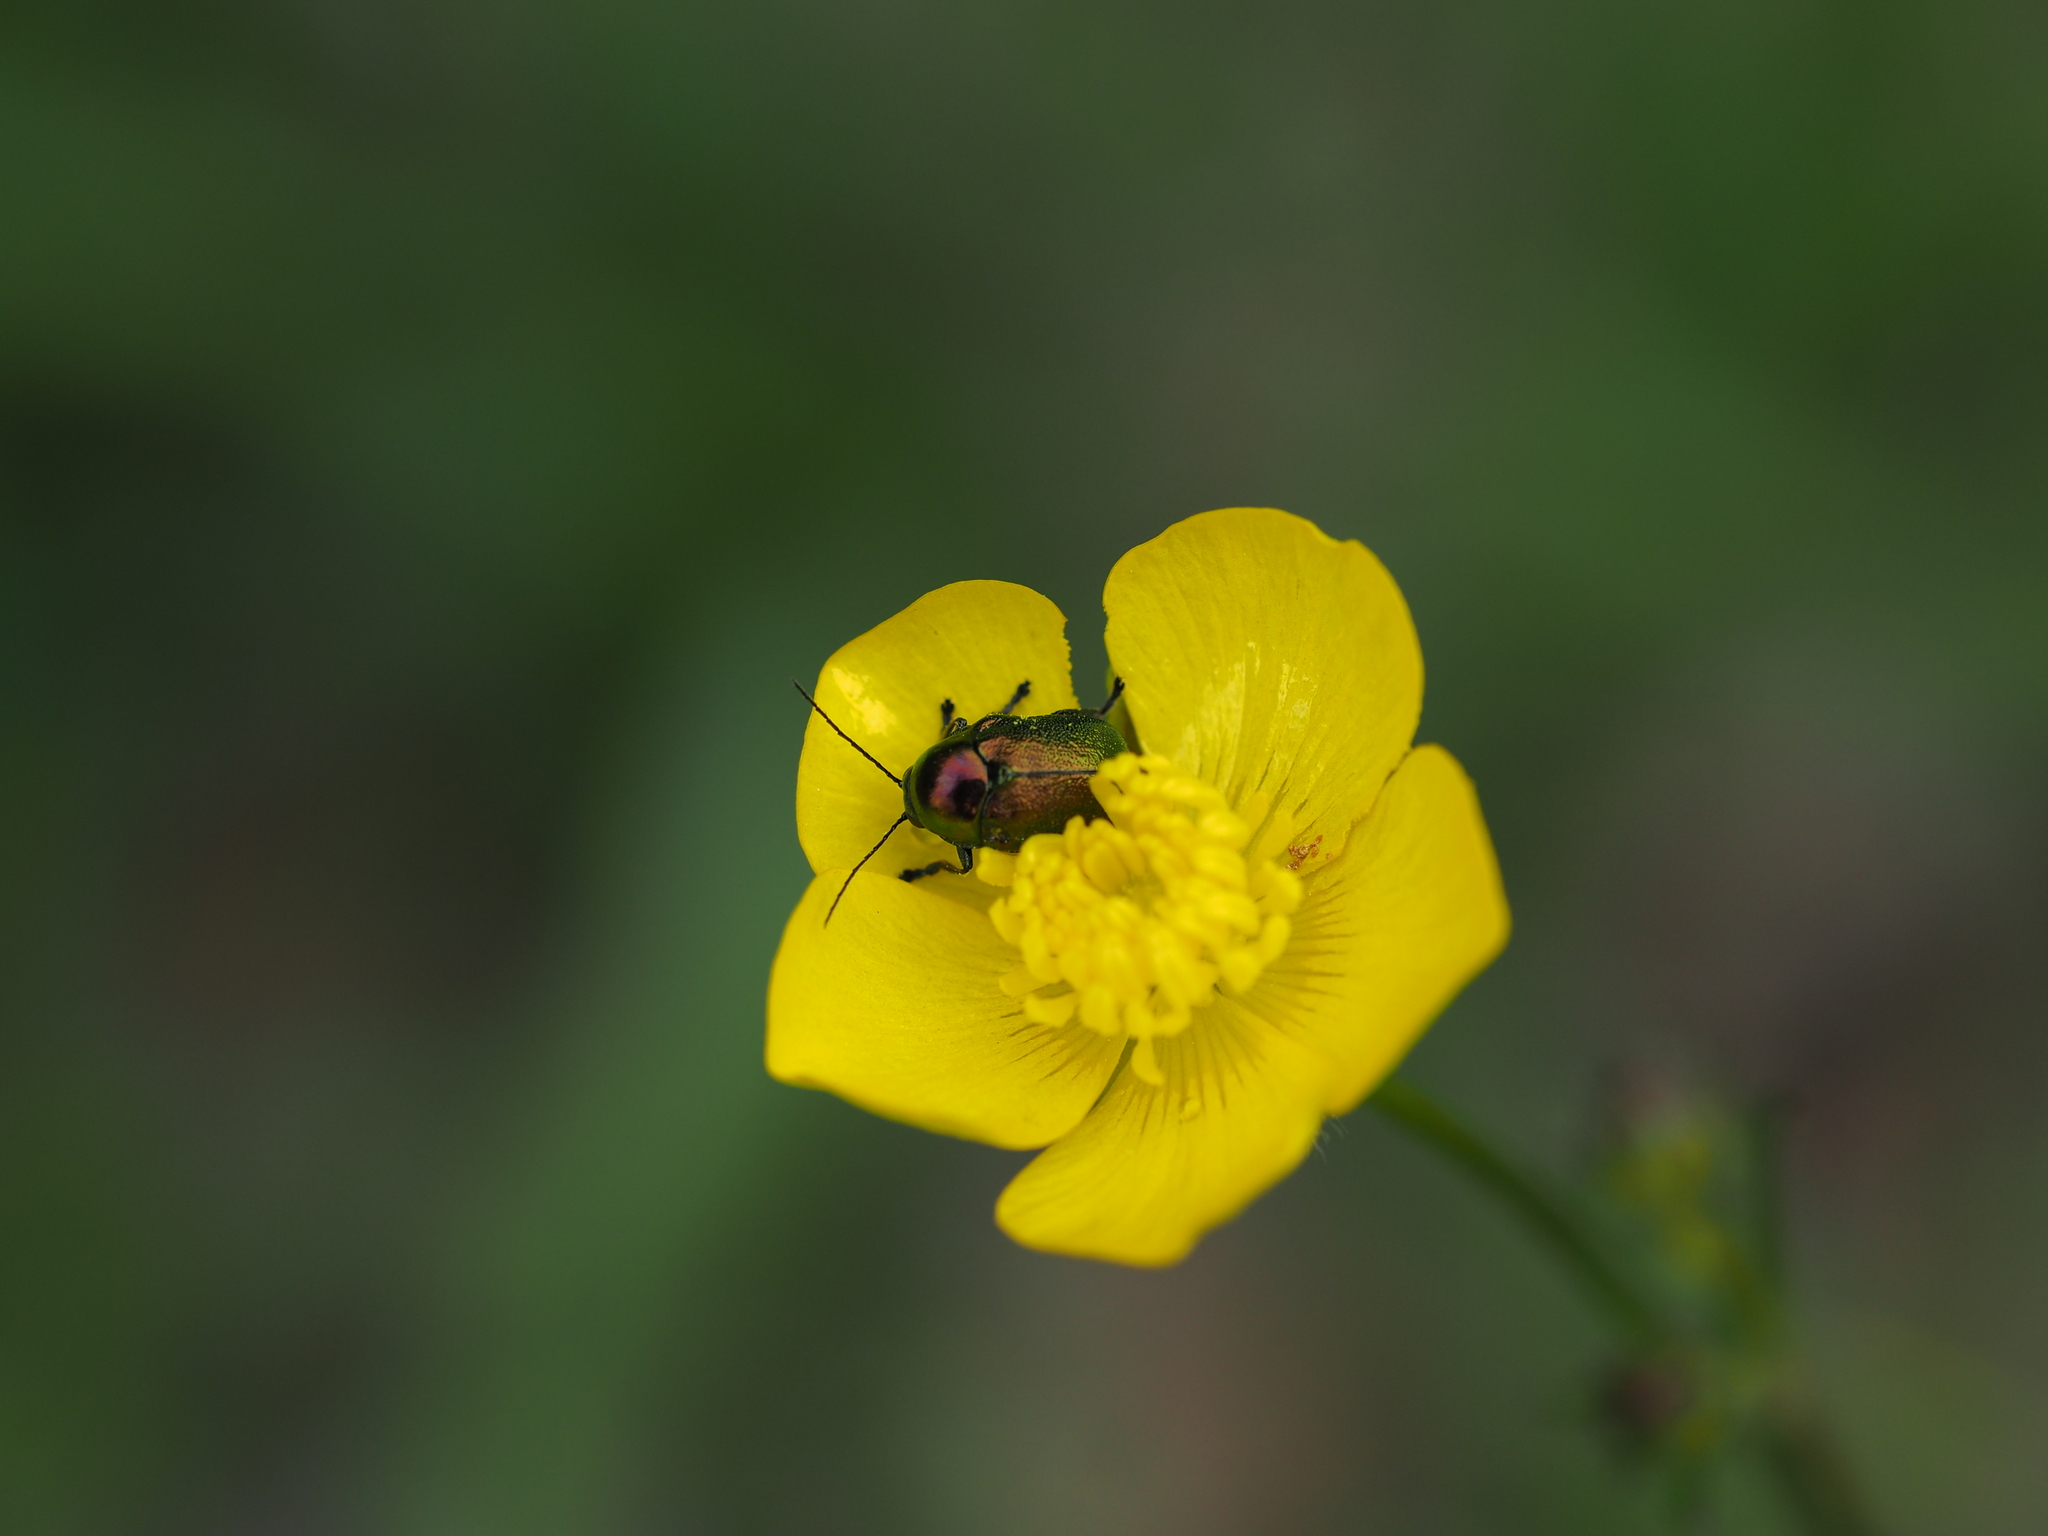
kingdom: Animalia
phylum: Arthropoda
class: Insecta
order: Coleoptera
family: Chrysomelidae
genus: Cryptocephalus
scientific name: Cryptocephalus
